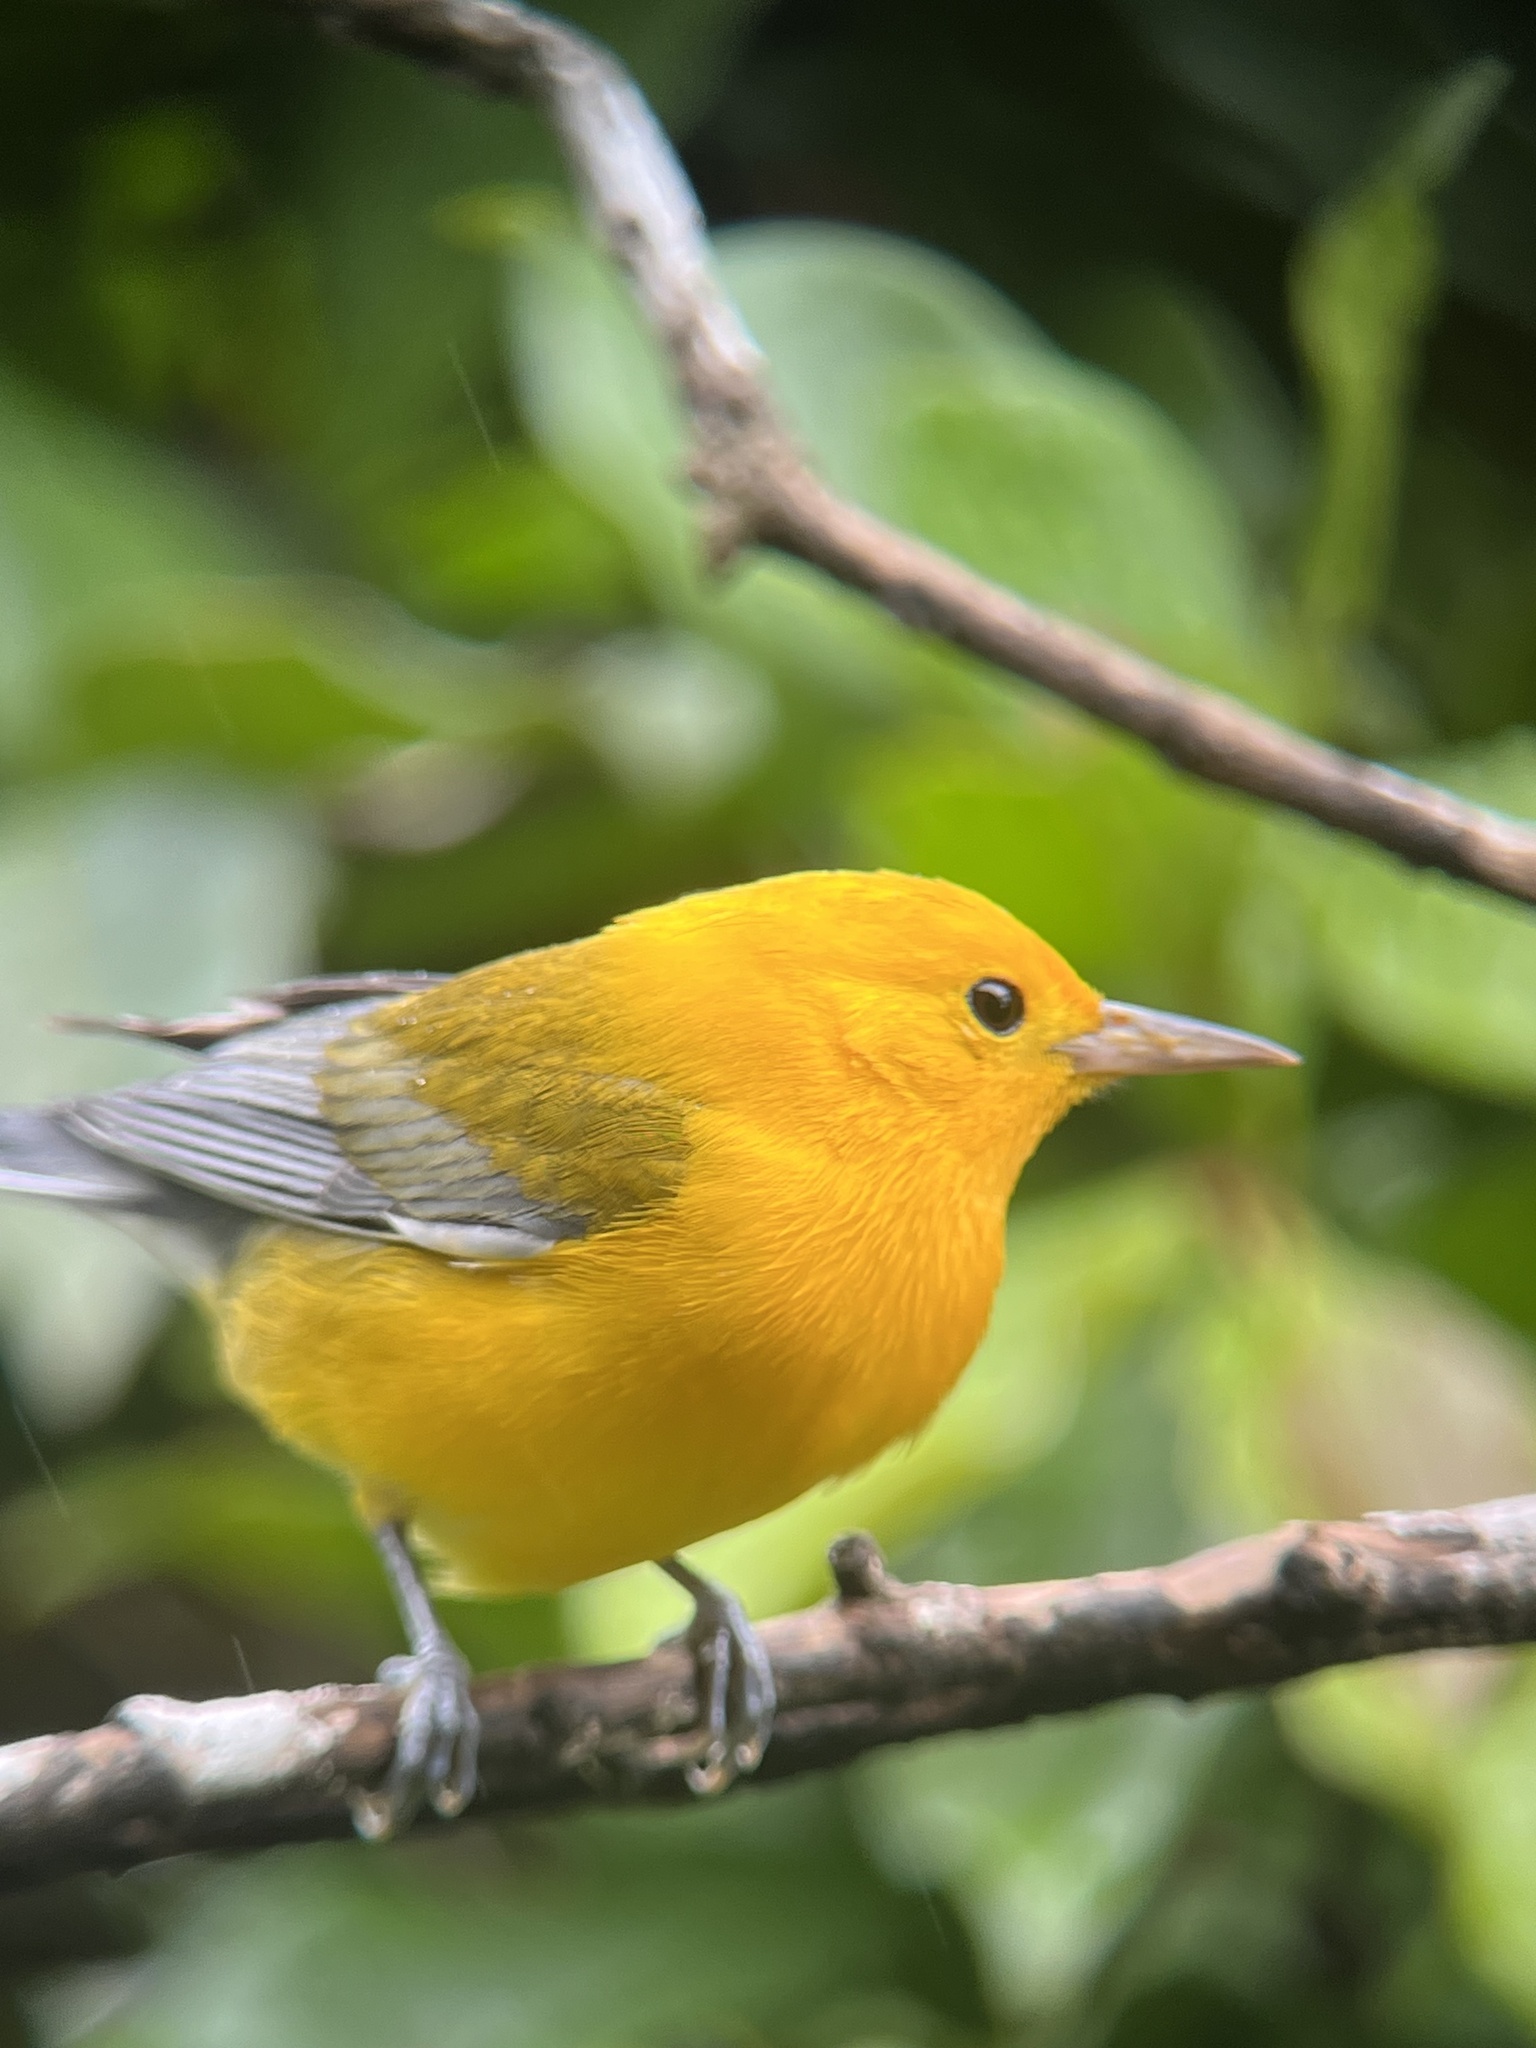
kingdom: Animalia
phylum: Chordata
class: Aves
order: Passeriformes
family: Parulidae
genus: Protonotaria
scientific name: Protonotaria citrea
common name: Prothonotary warbler
